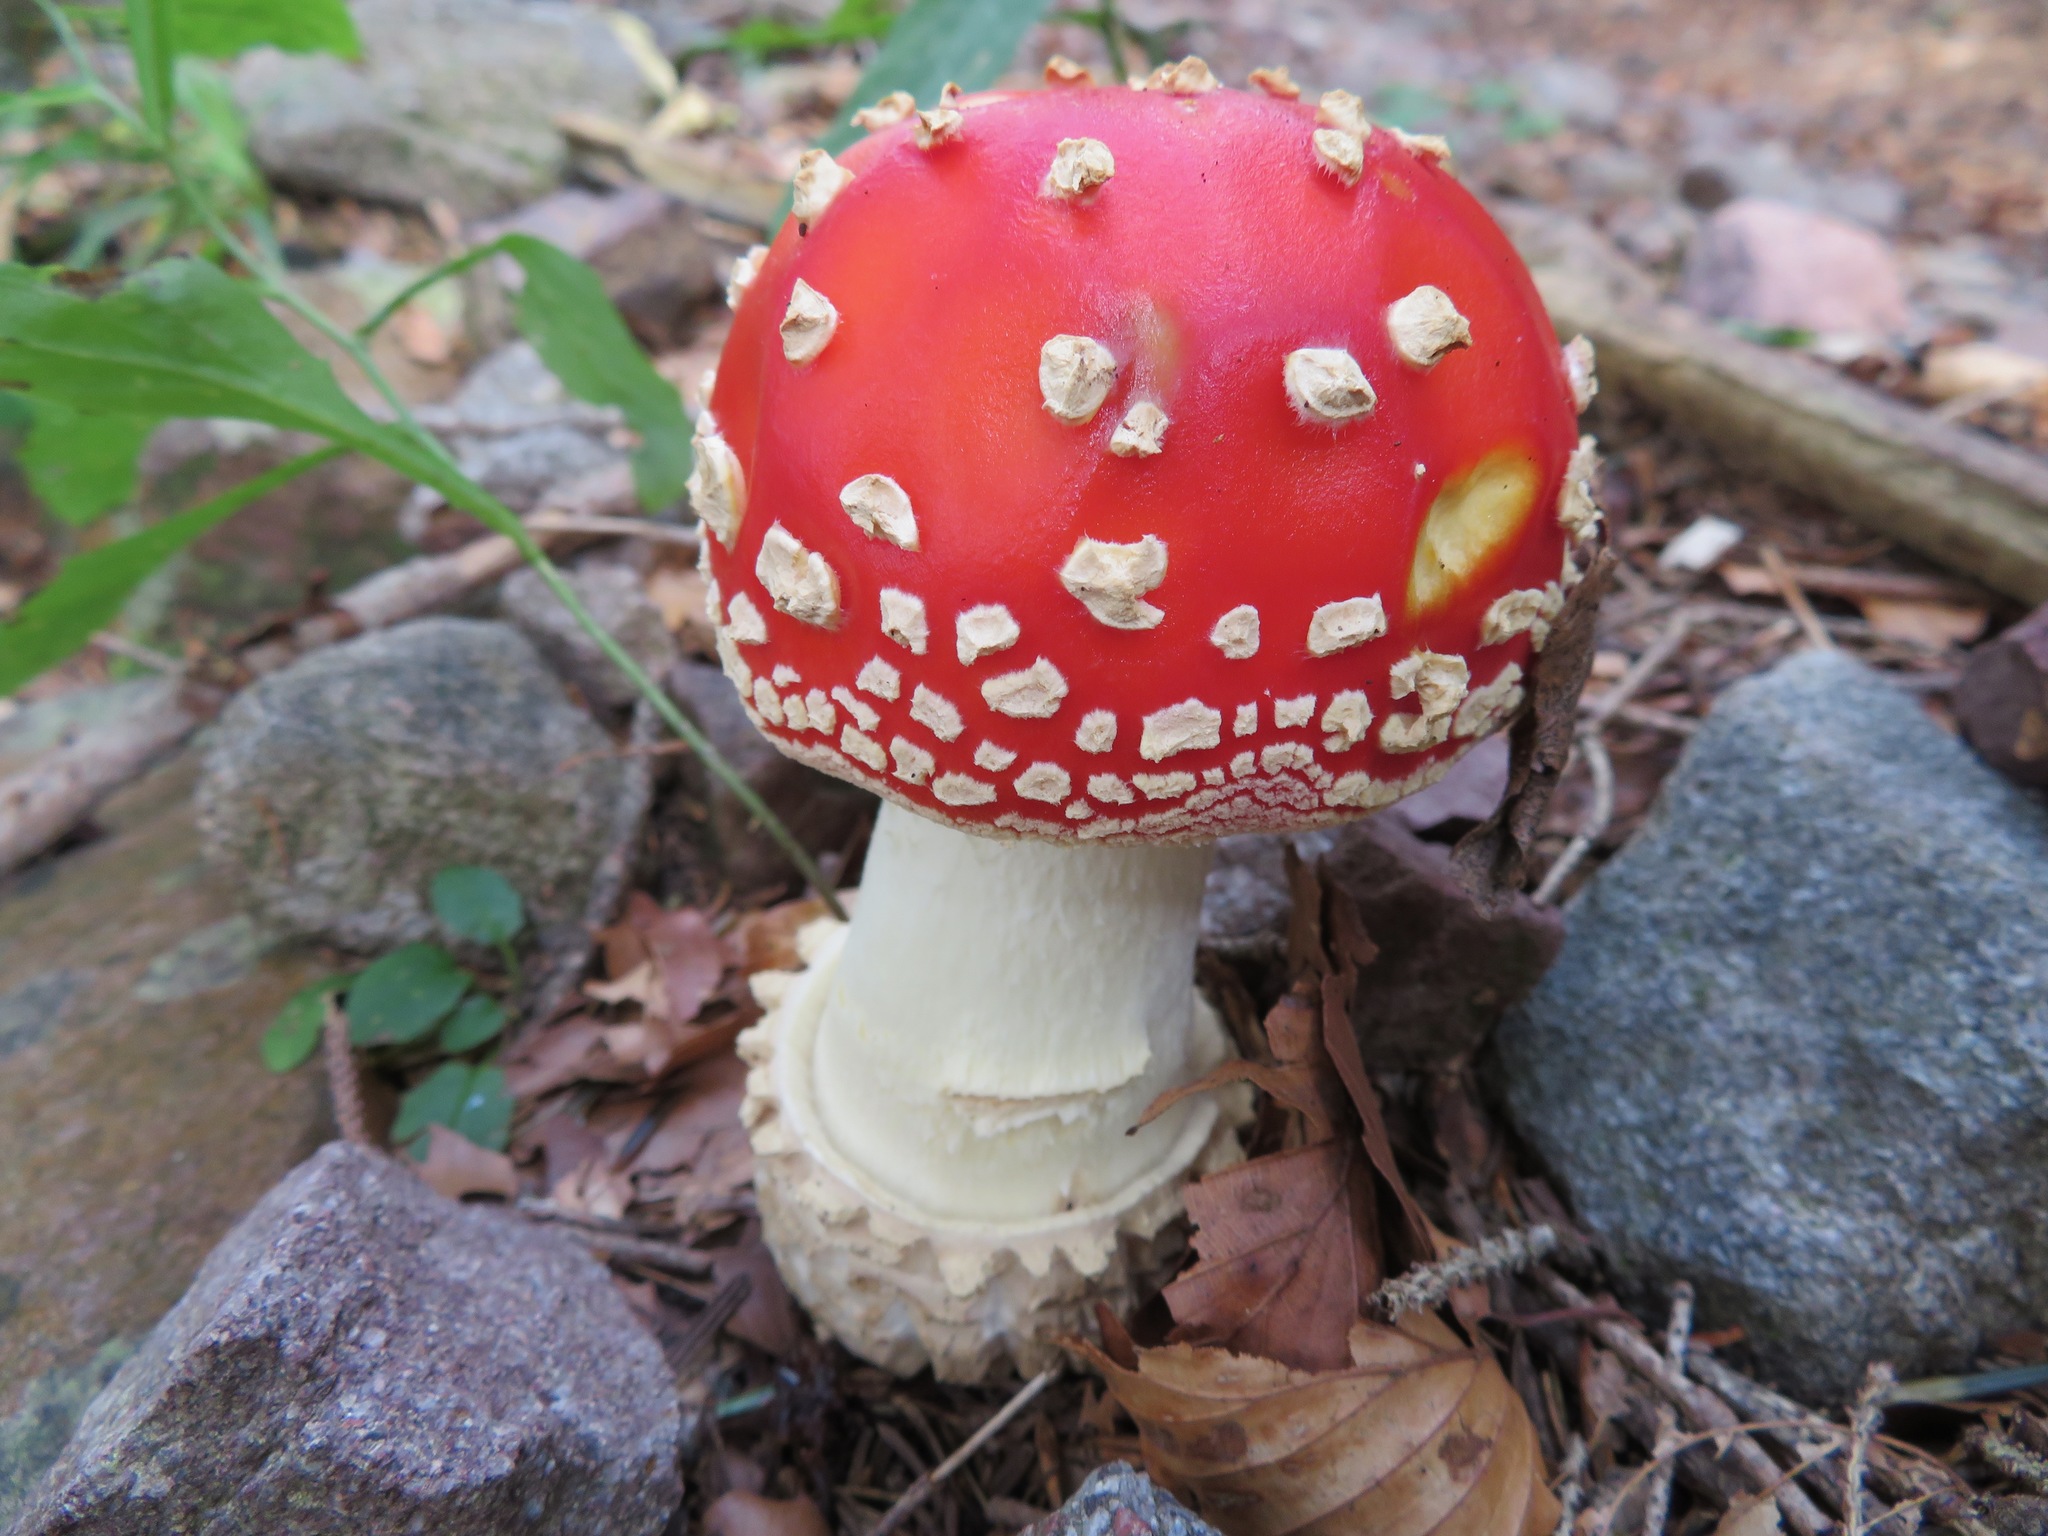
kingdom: Fungi
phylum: Basidiomycota
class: Agaricomycetes
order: Agaricales
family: Amanitaceae
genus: Amanita
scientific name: Amanita muscaria
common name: Fly agaric
